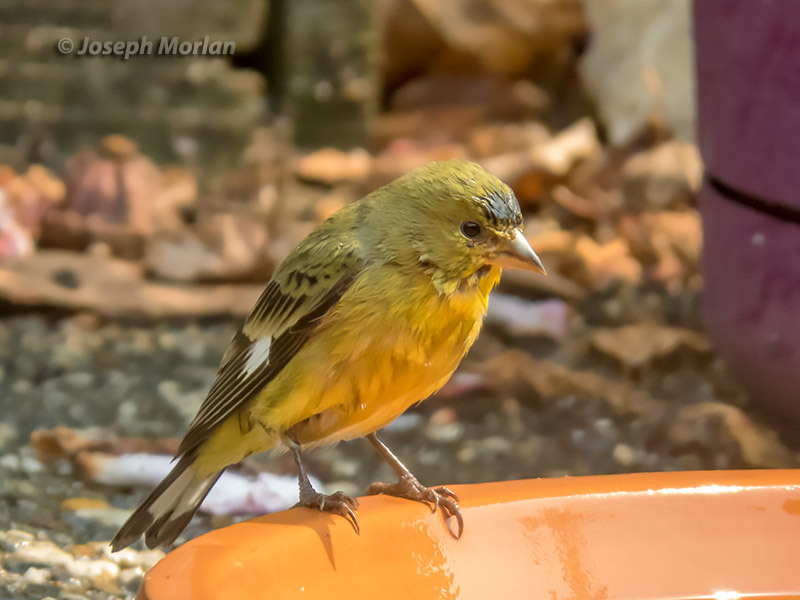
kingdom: Animalia
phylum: Chordata
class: Aves
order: Passeriformes
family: Fringillidae
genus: Spinus
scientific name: Spinus psaltria
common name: Lesser goldfinch
